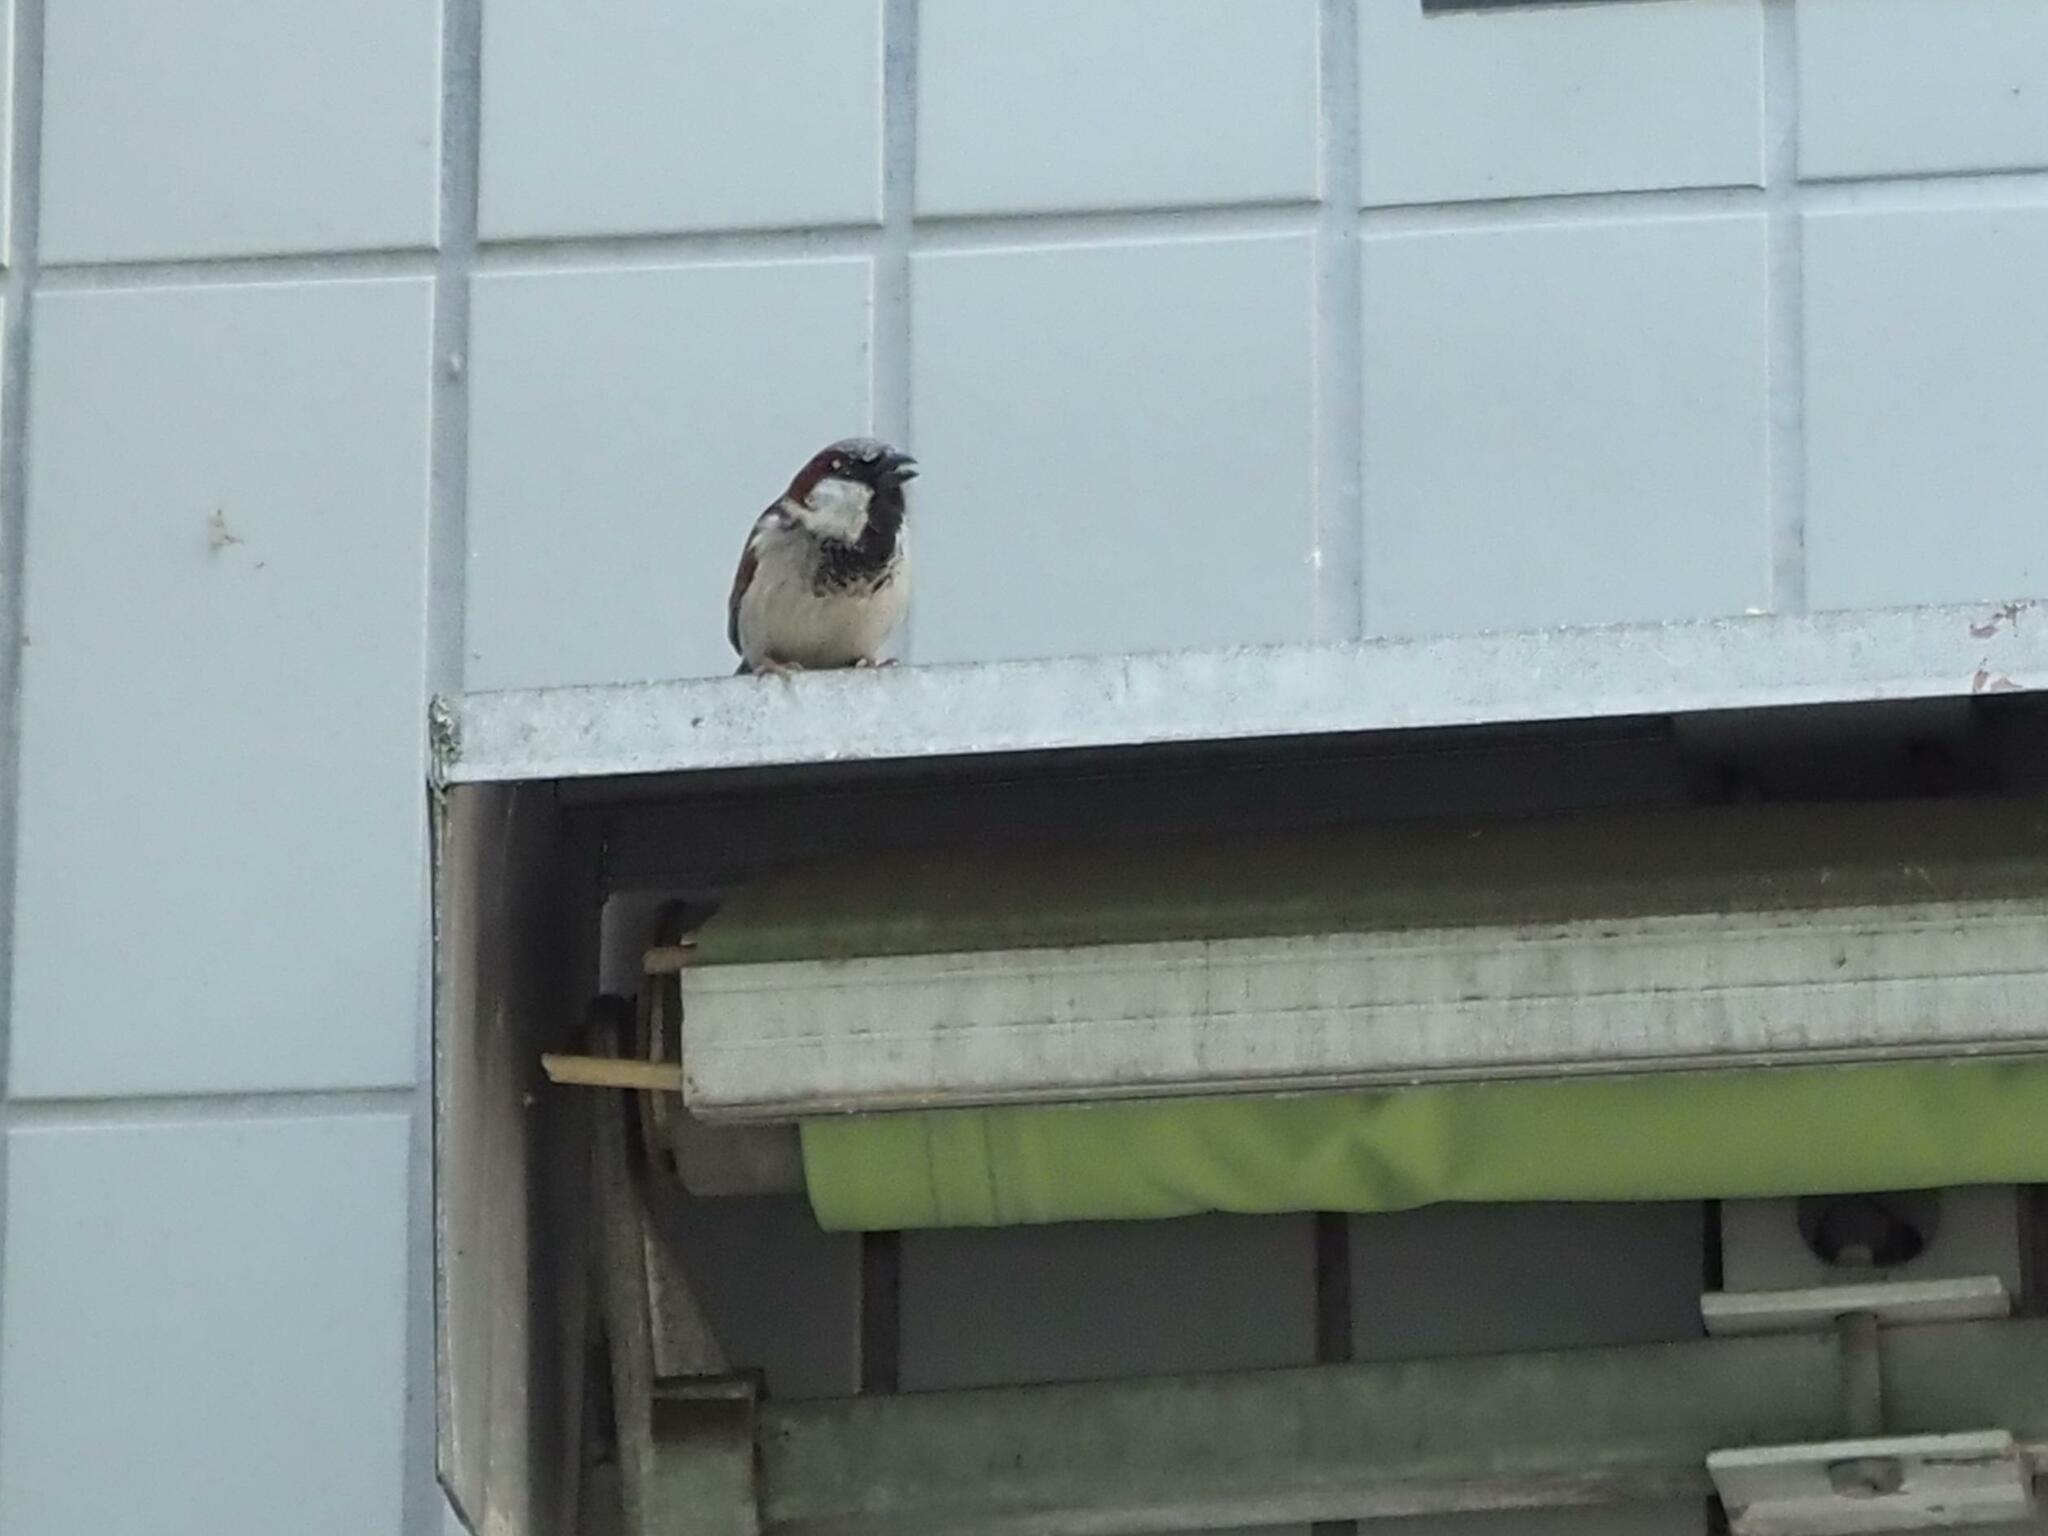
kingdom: Animalia
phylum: Chordata
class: Aves
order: Passeriformes
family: Passeridae
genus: Passer
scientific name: Passer domesticus
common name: House sparrow
